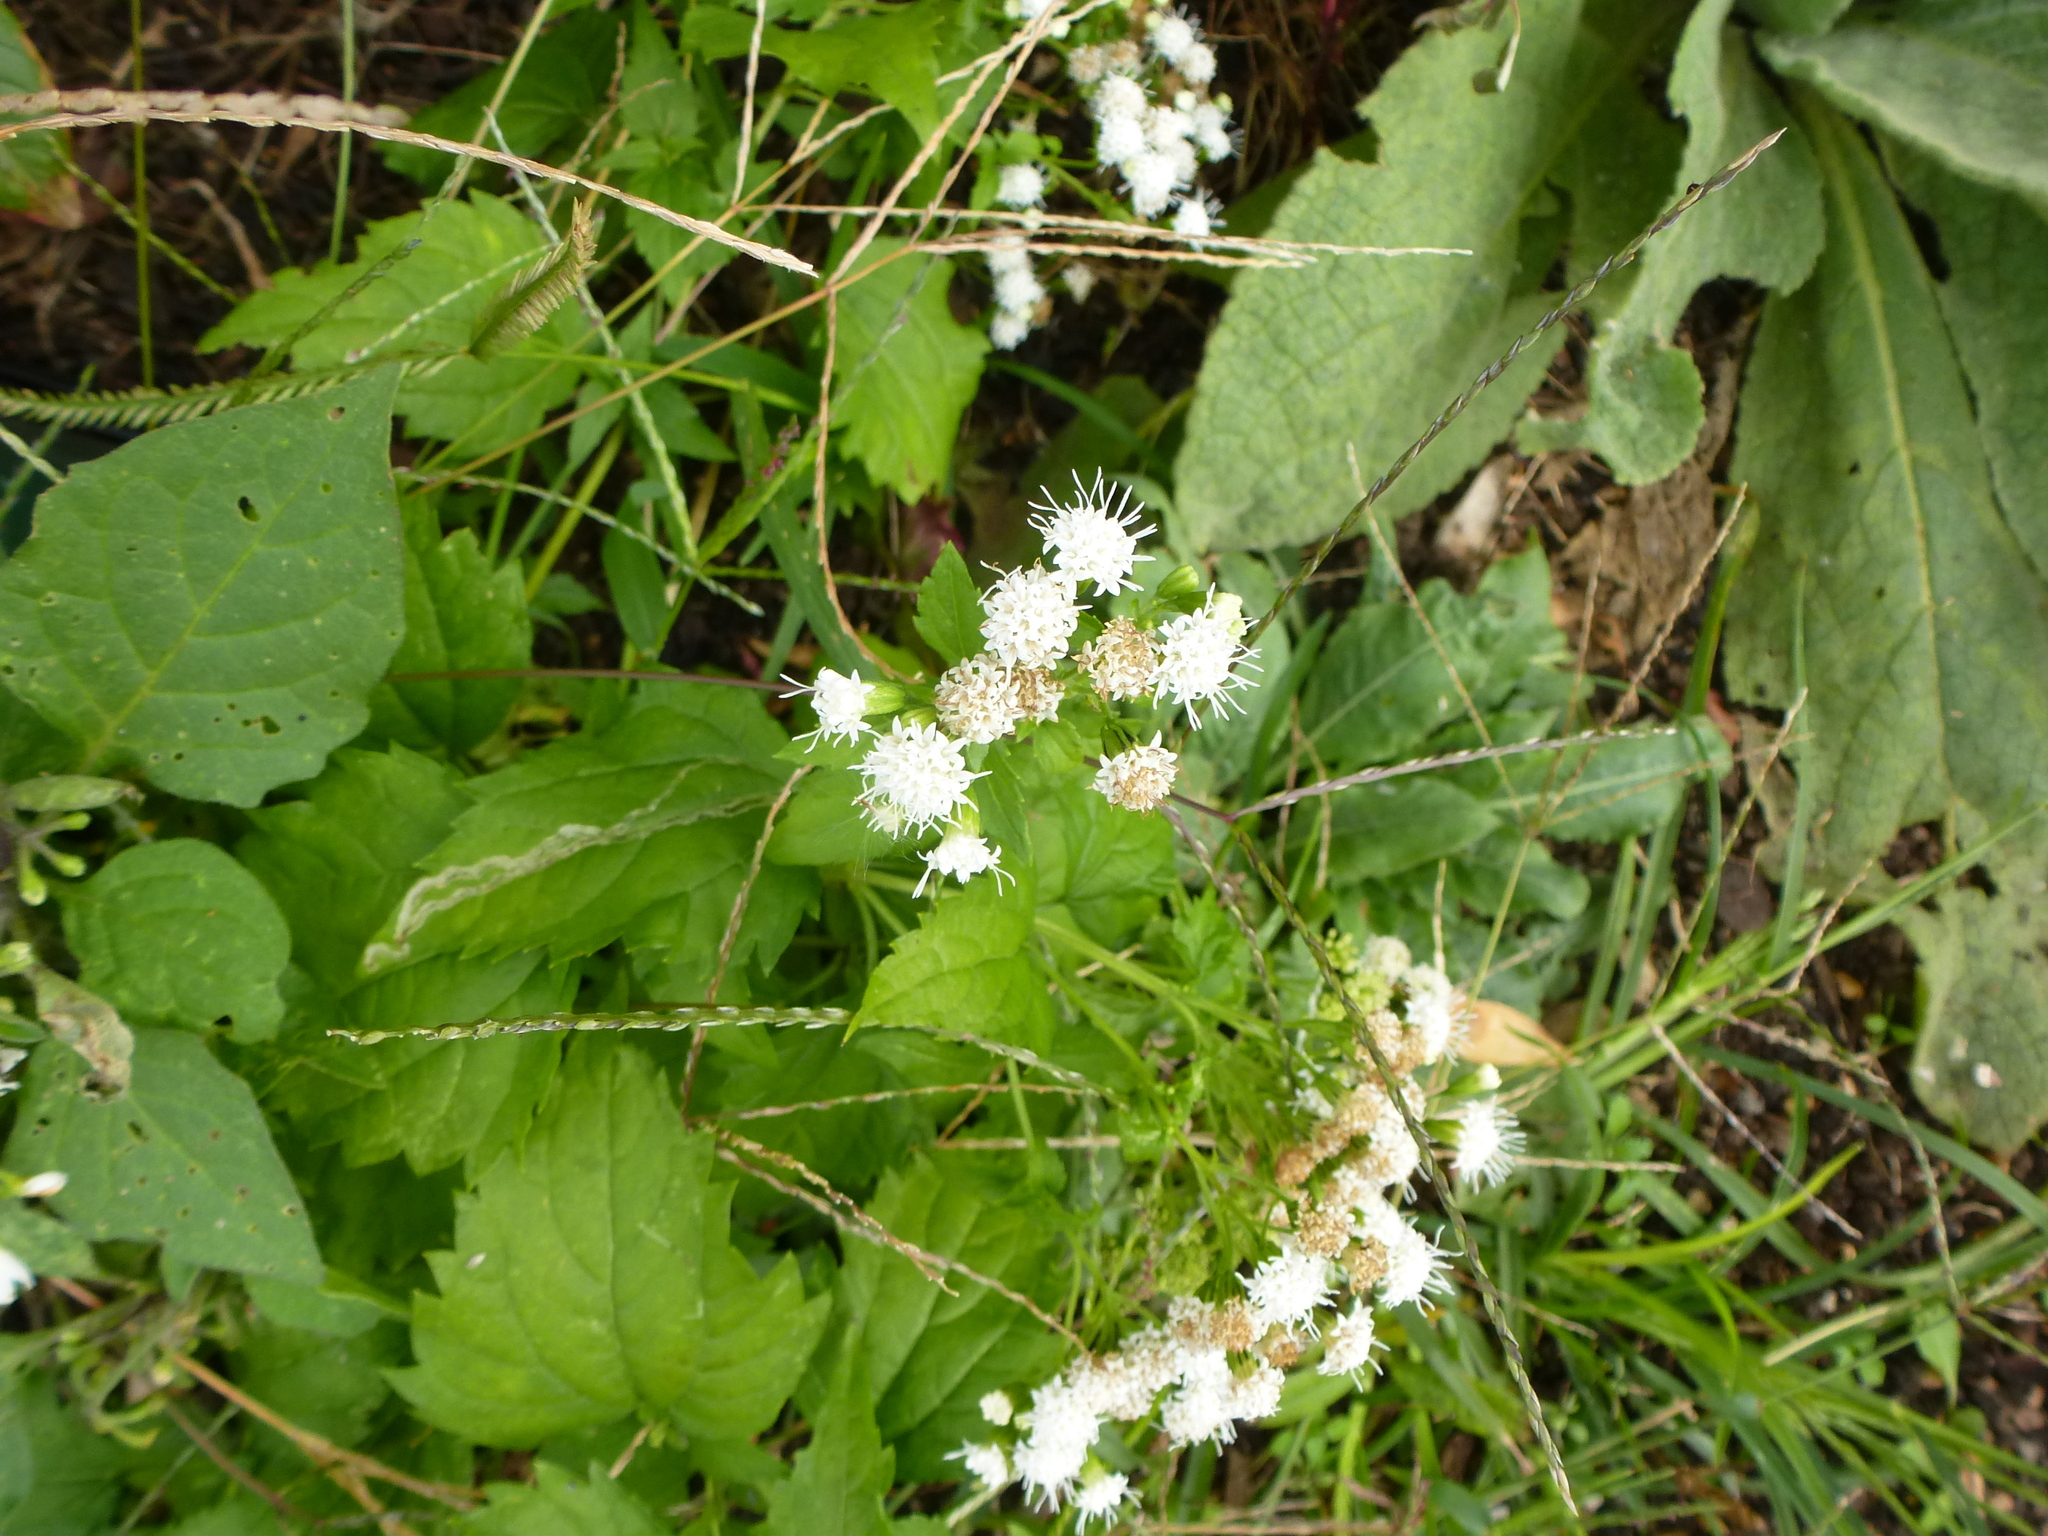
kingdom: Plantae
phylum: Tracheophyta
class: Magnoliopsida
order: Asterales
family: Asteraceae
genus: Ageratina
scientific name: Ageratina altissima
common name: White snakeroot
